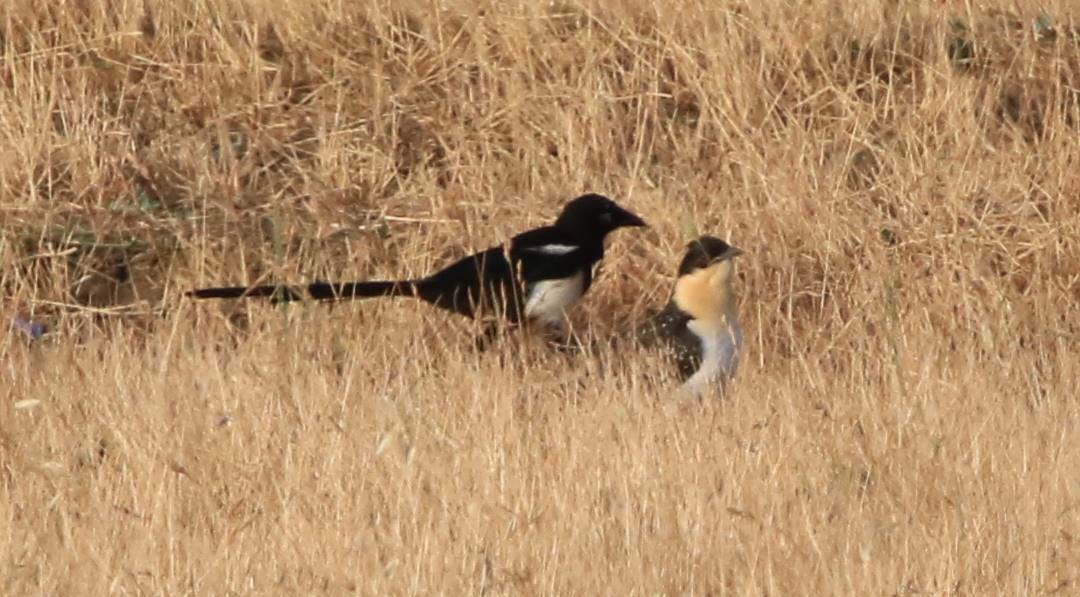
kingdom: Animalia
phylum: Chordata
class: Aves
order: Cuculiformes
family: Cuculidae
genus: Clamator
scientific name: Clamator glandarius
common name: Great spotted cuckoo
